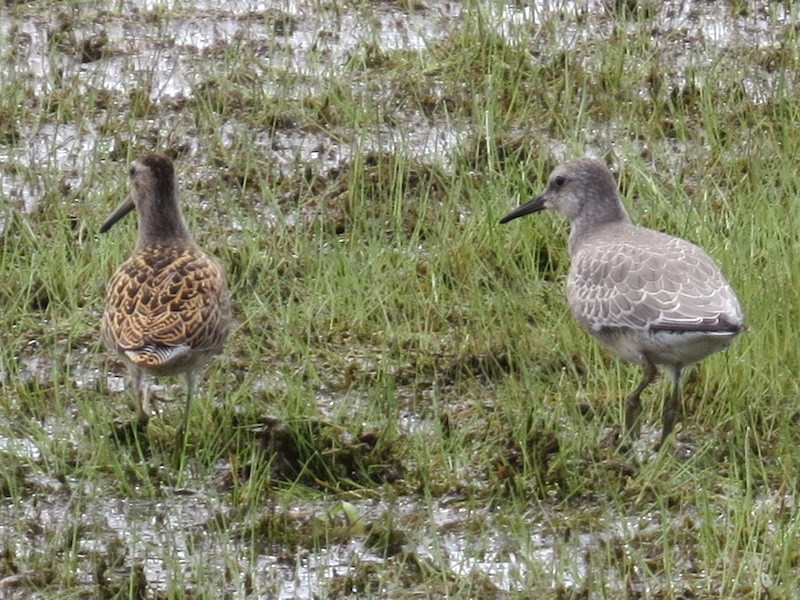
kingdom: Animalia
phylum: Chordata
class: Aves
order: Charadriiformes
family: Scolopacidae
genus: Calidris
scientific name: Calidris canutus
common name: Red knot
